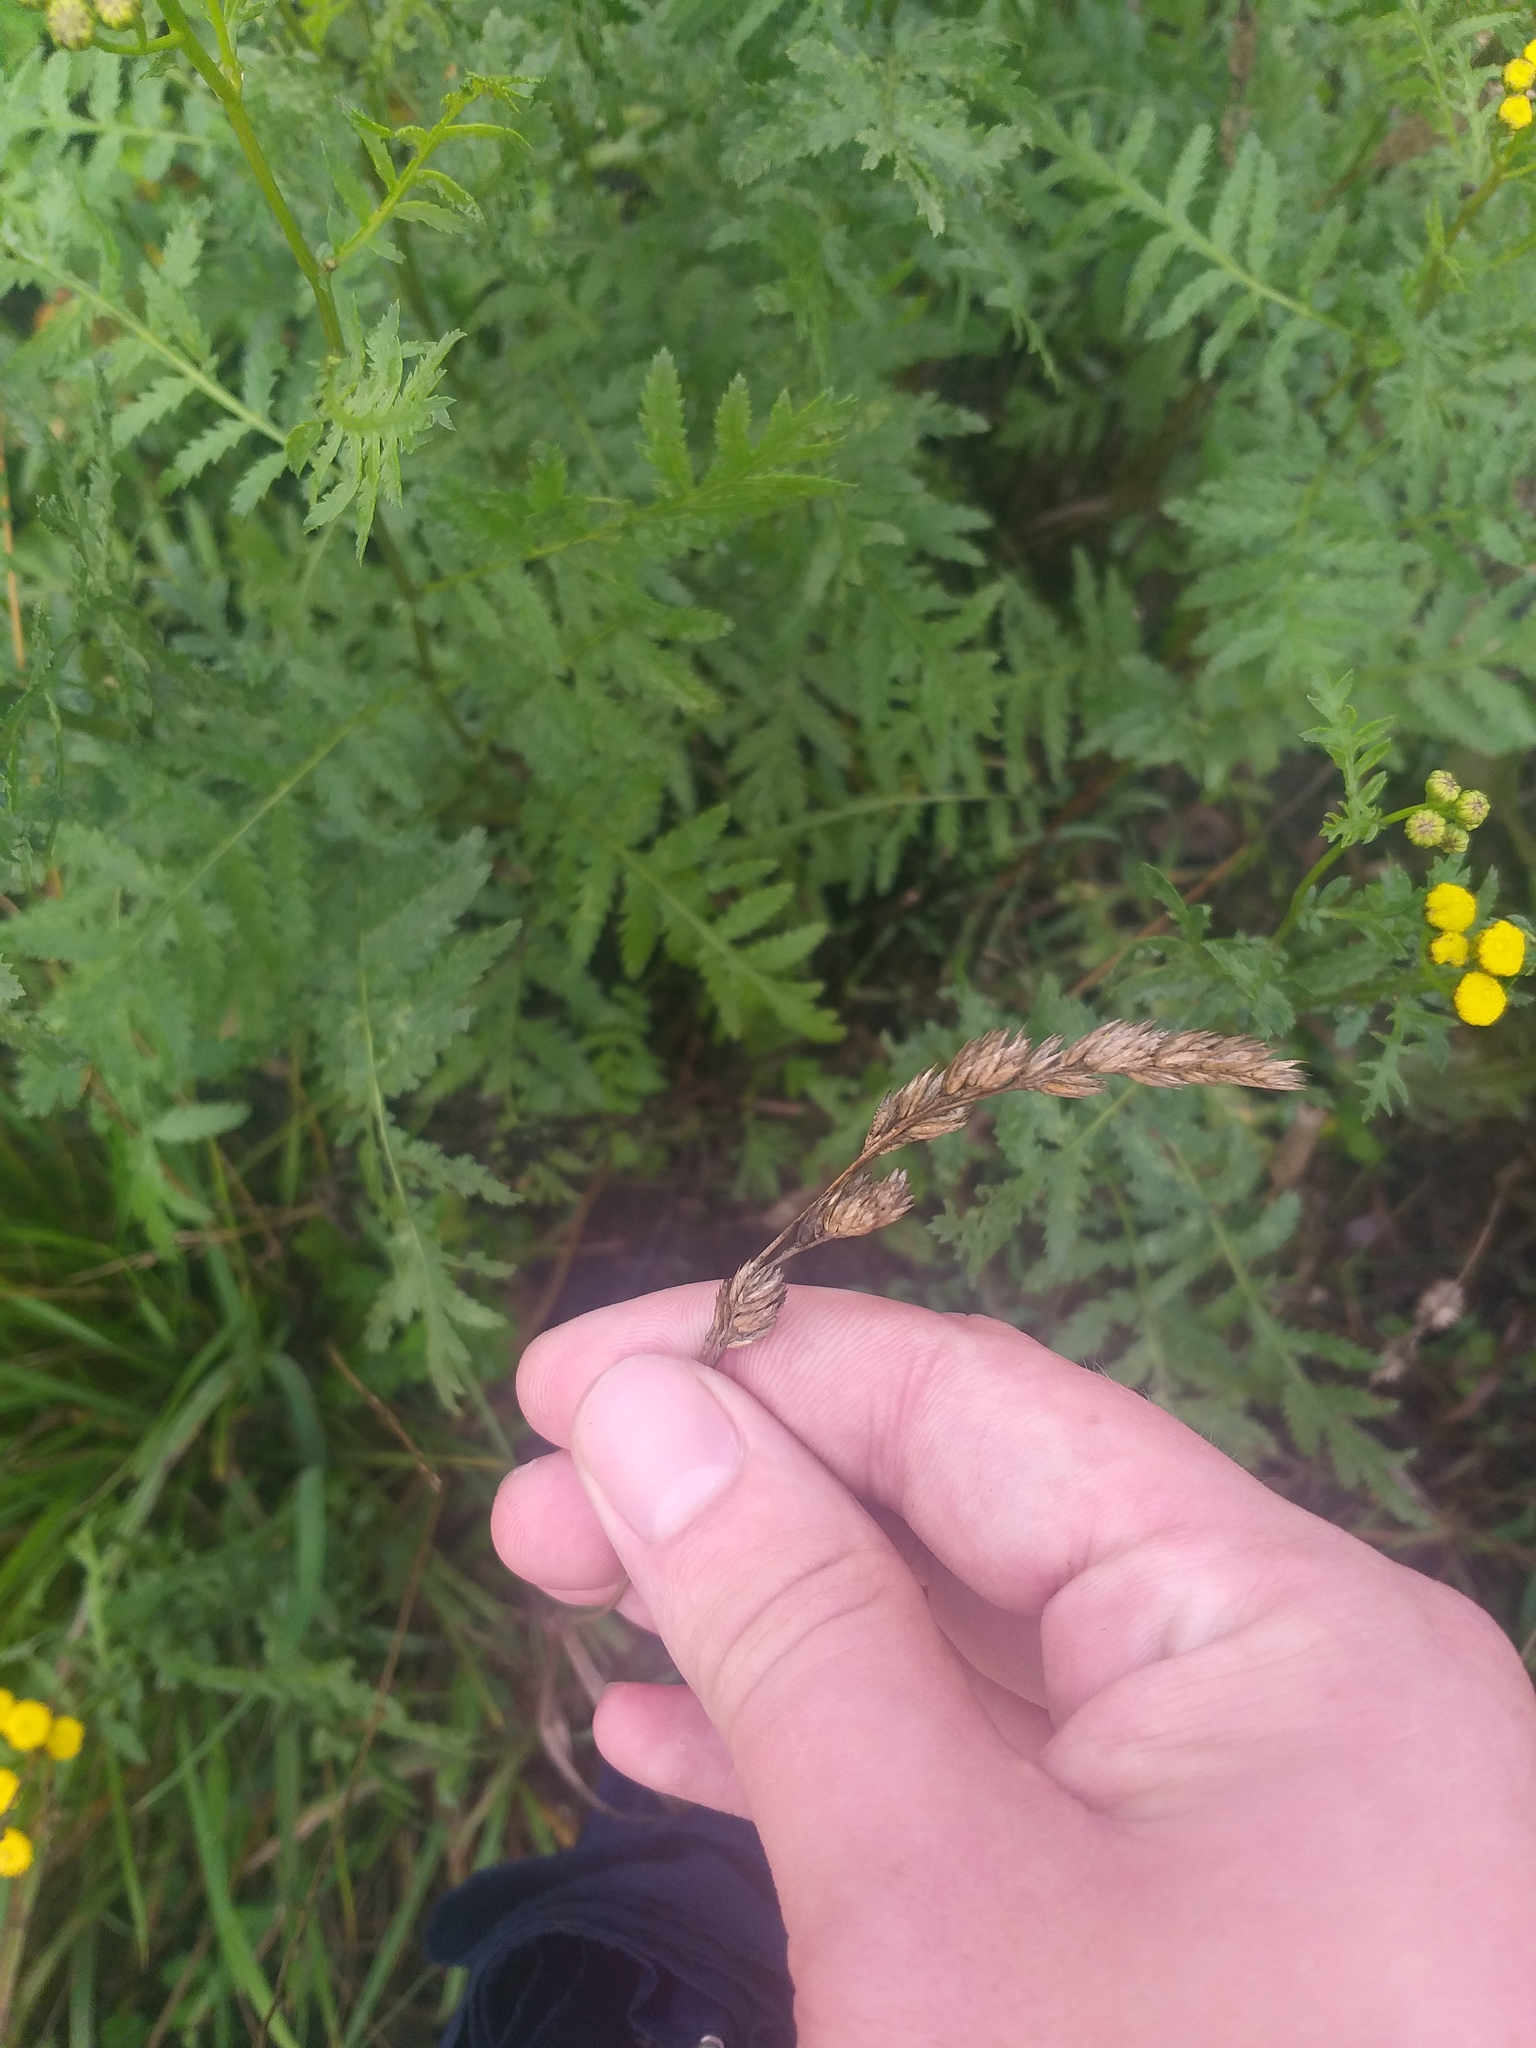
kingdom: Plantae
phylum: Tracheophyta
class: Liliopsida
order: Poales
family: Poaceae
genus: Dactylis
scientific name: Dactylis glomerata
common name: Orchardgrass
